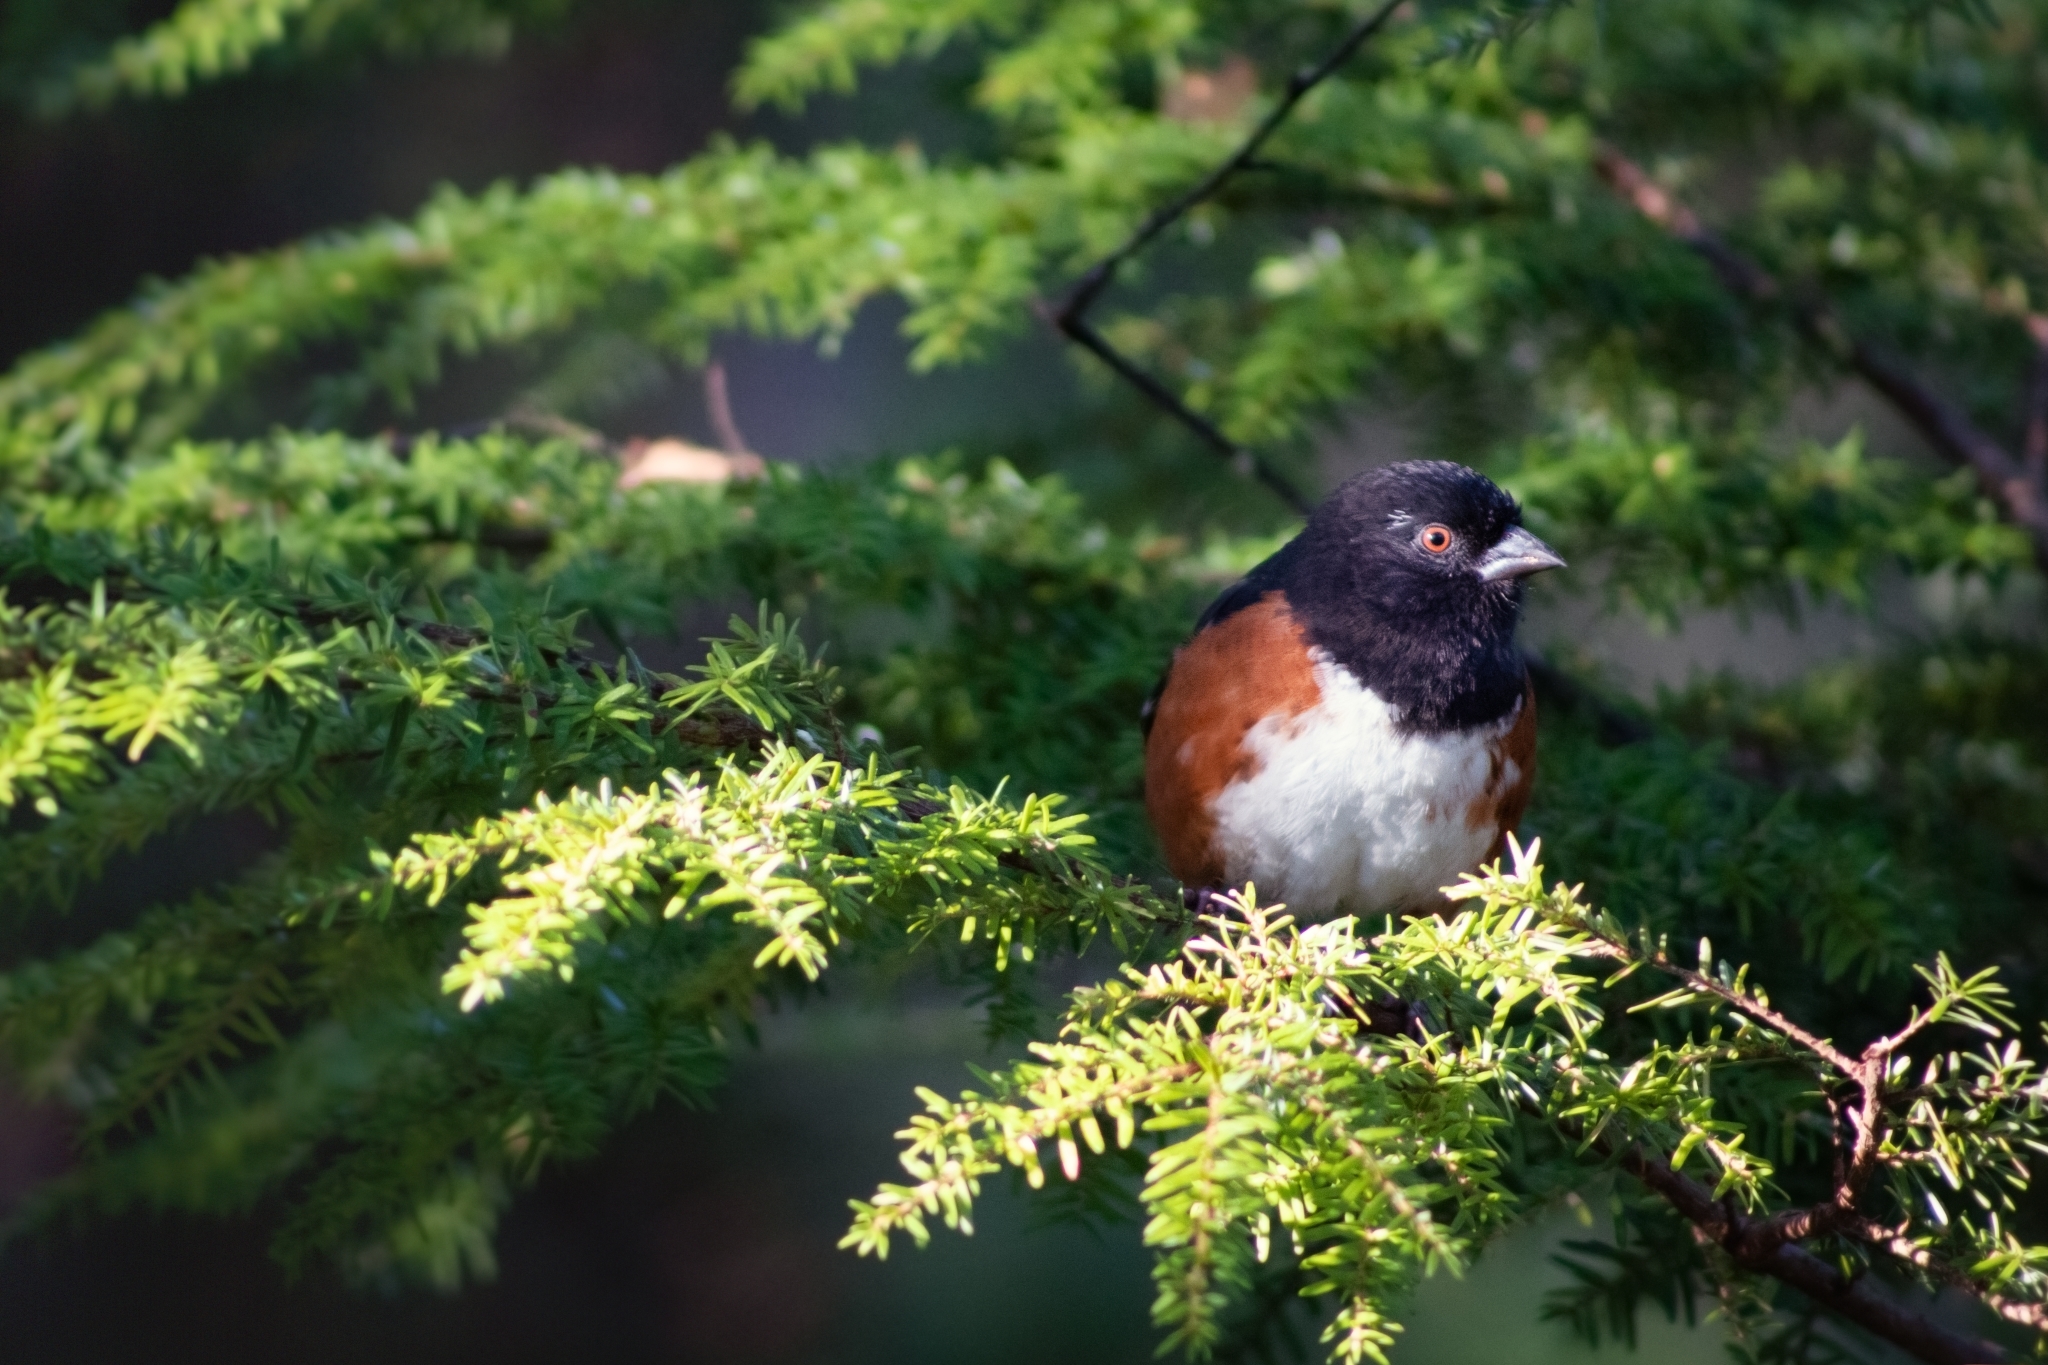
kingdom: Animalia
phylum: Chordata
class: Aves
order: Passeriformes
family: Passerellidae
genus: Pipilo
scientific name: Pipilo maculatus
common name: Spotted towhee
